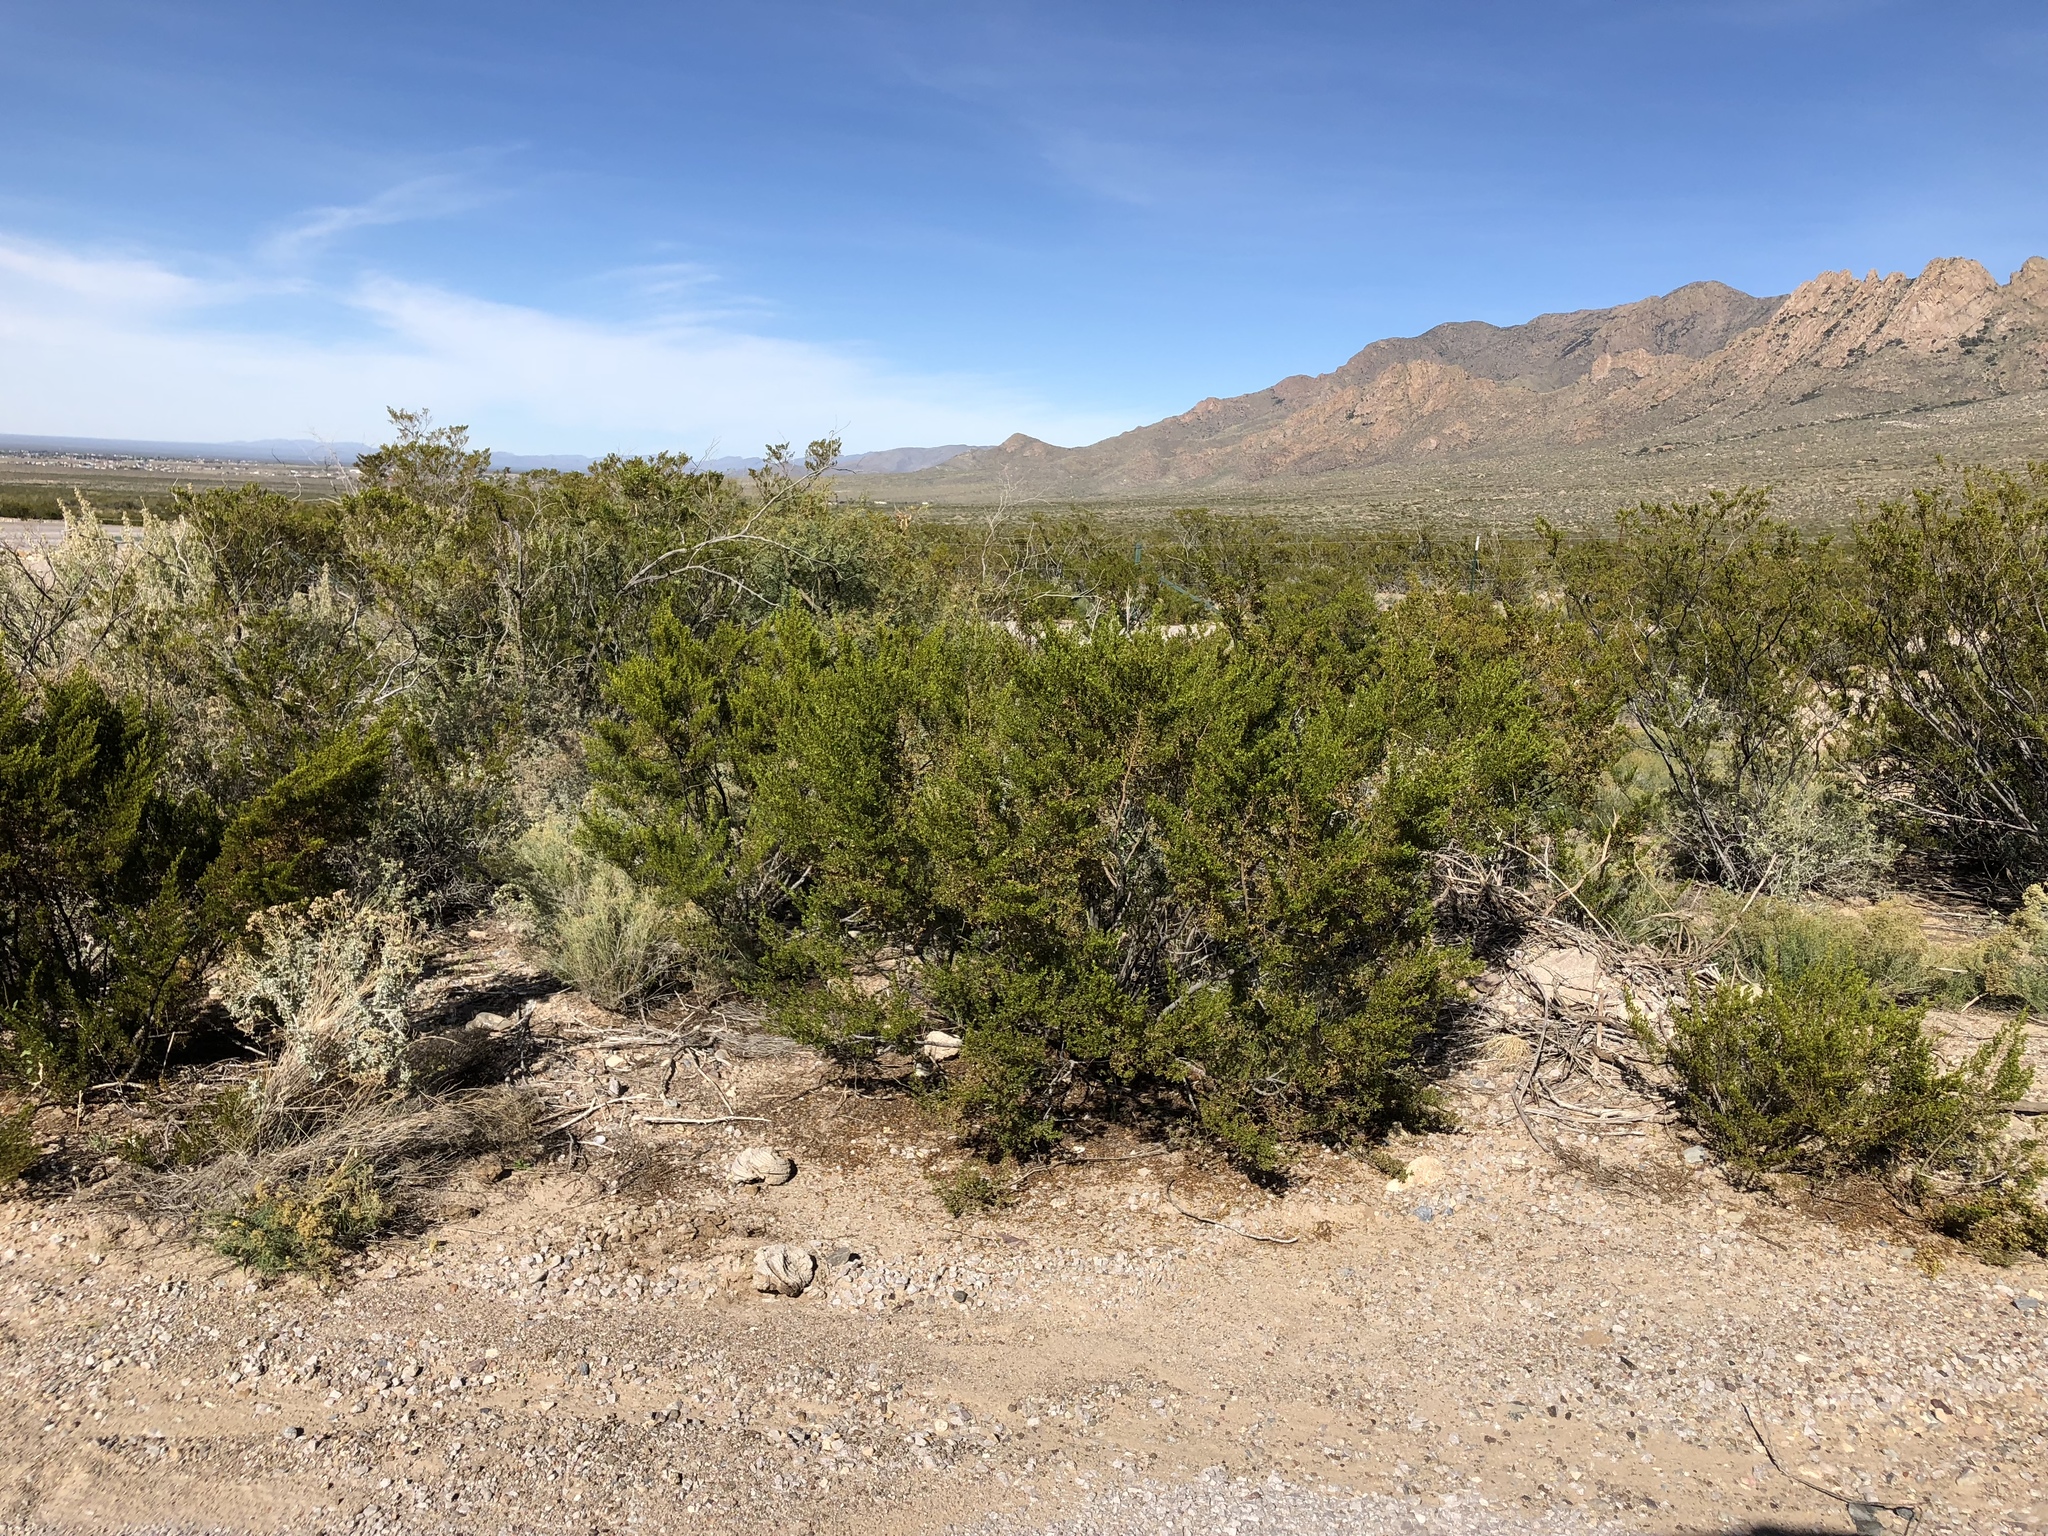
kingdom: Plantae
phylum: Tracheophyta
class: Magnoliopsida
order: Zygophyllales
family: Zygophyllaceae
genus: Larrea
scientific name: Larrea tridentata
